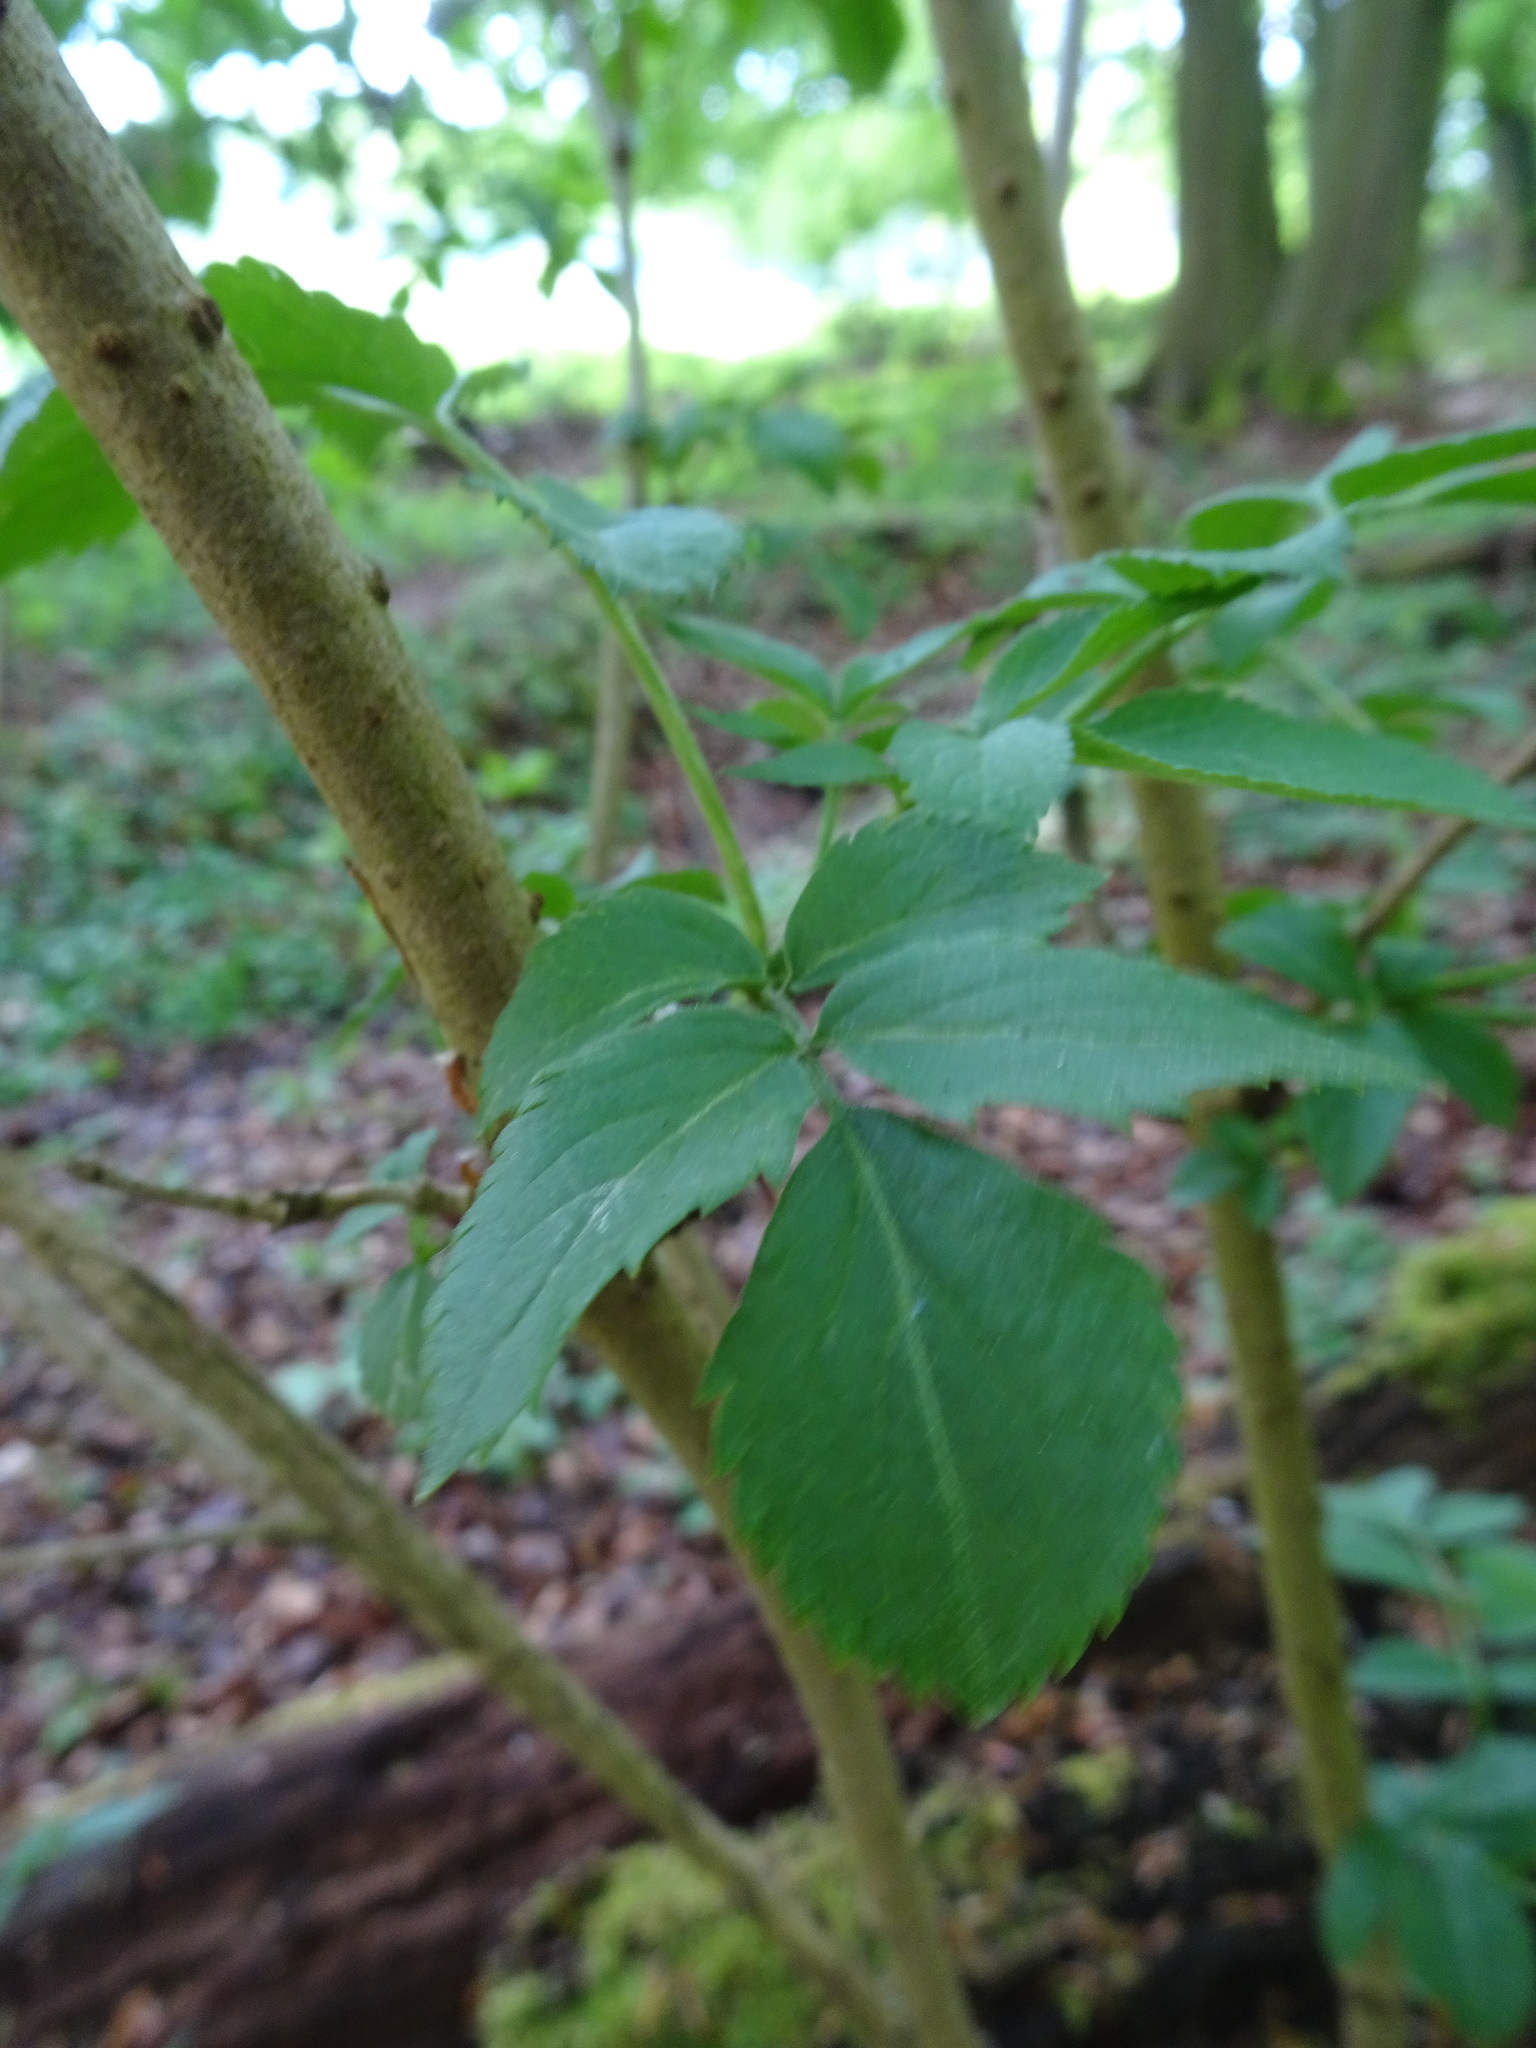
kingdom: Plantae
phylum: Tracheophyta
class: Magnoliopsida
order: Dipsacales
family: Viburnaceae
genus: Sambucus
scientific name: Sambucus nigra
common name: Elder
